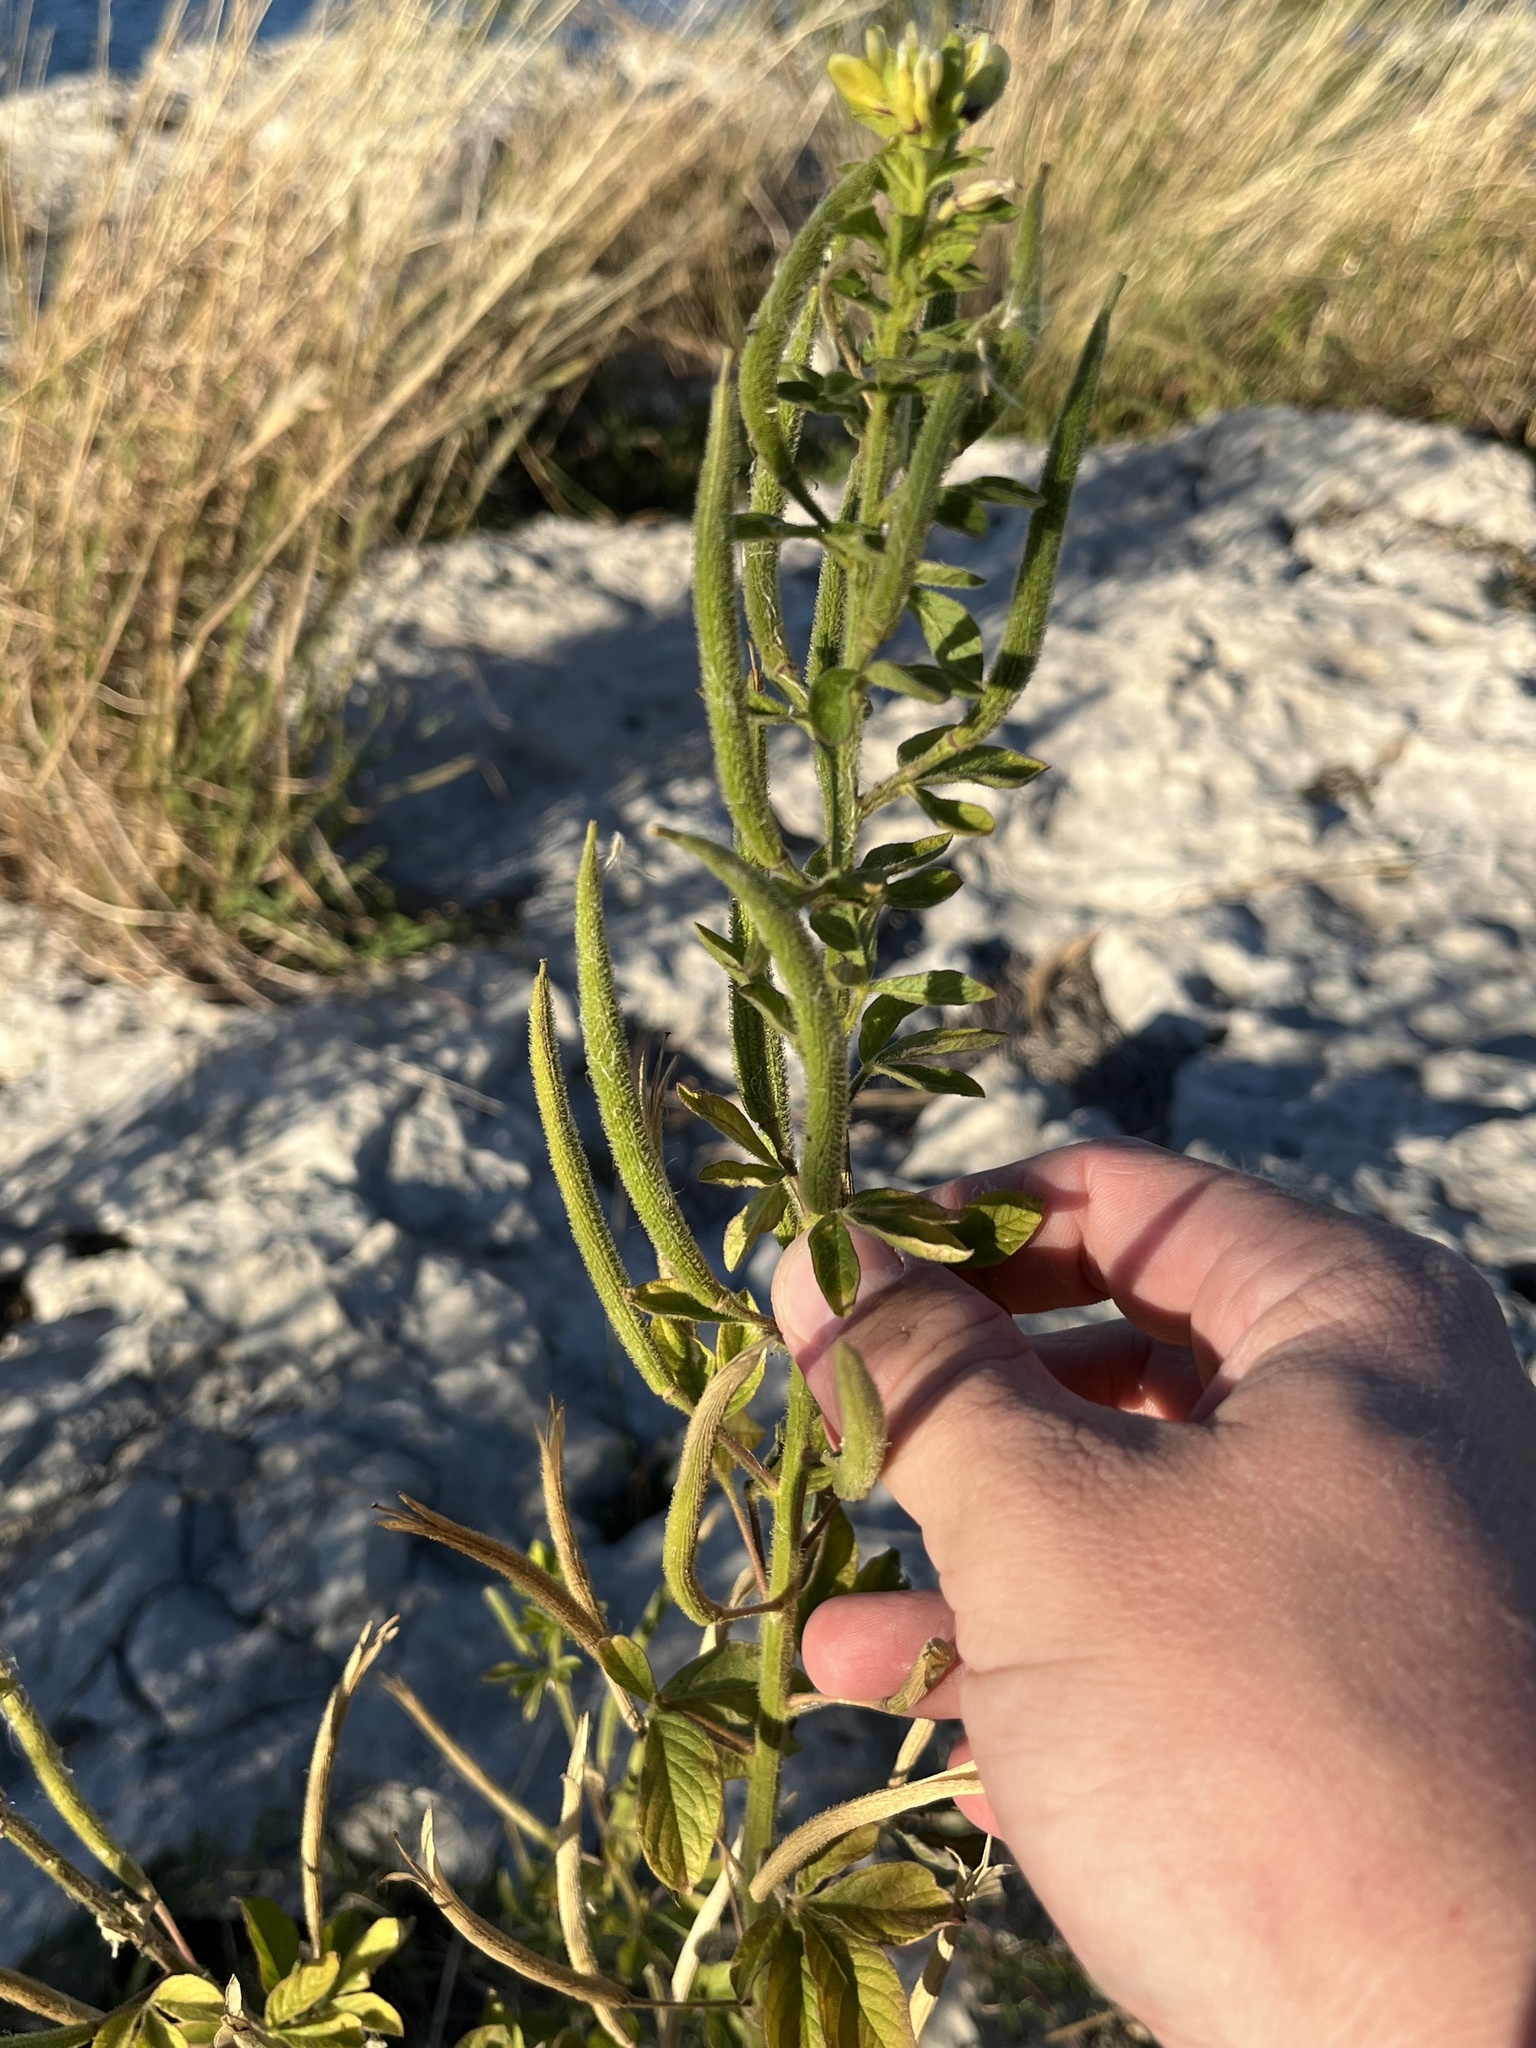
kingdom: Plantae
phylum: Tracheophyta
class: Magnoliopsida
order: Brassicales
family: Cleomaceae
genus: Arivela
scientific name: Arivela viscosa
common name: Asian spiderflower
